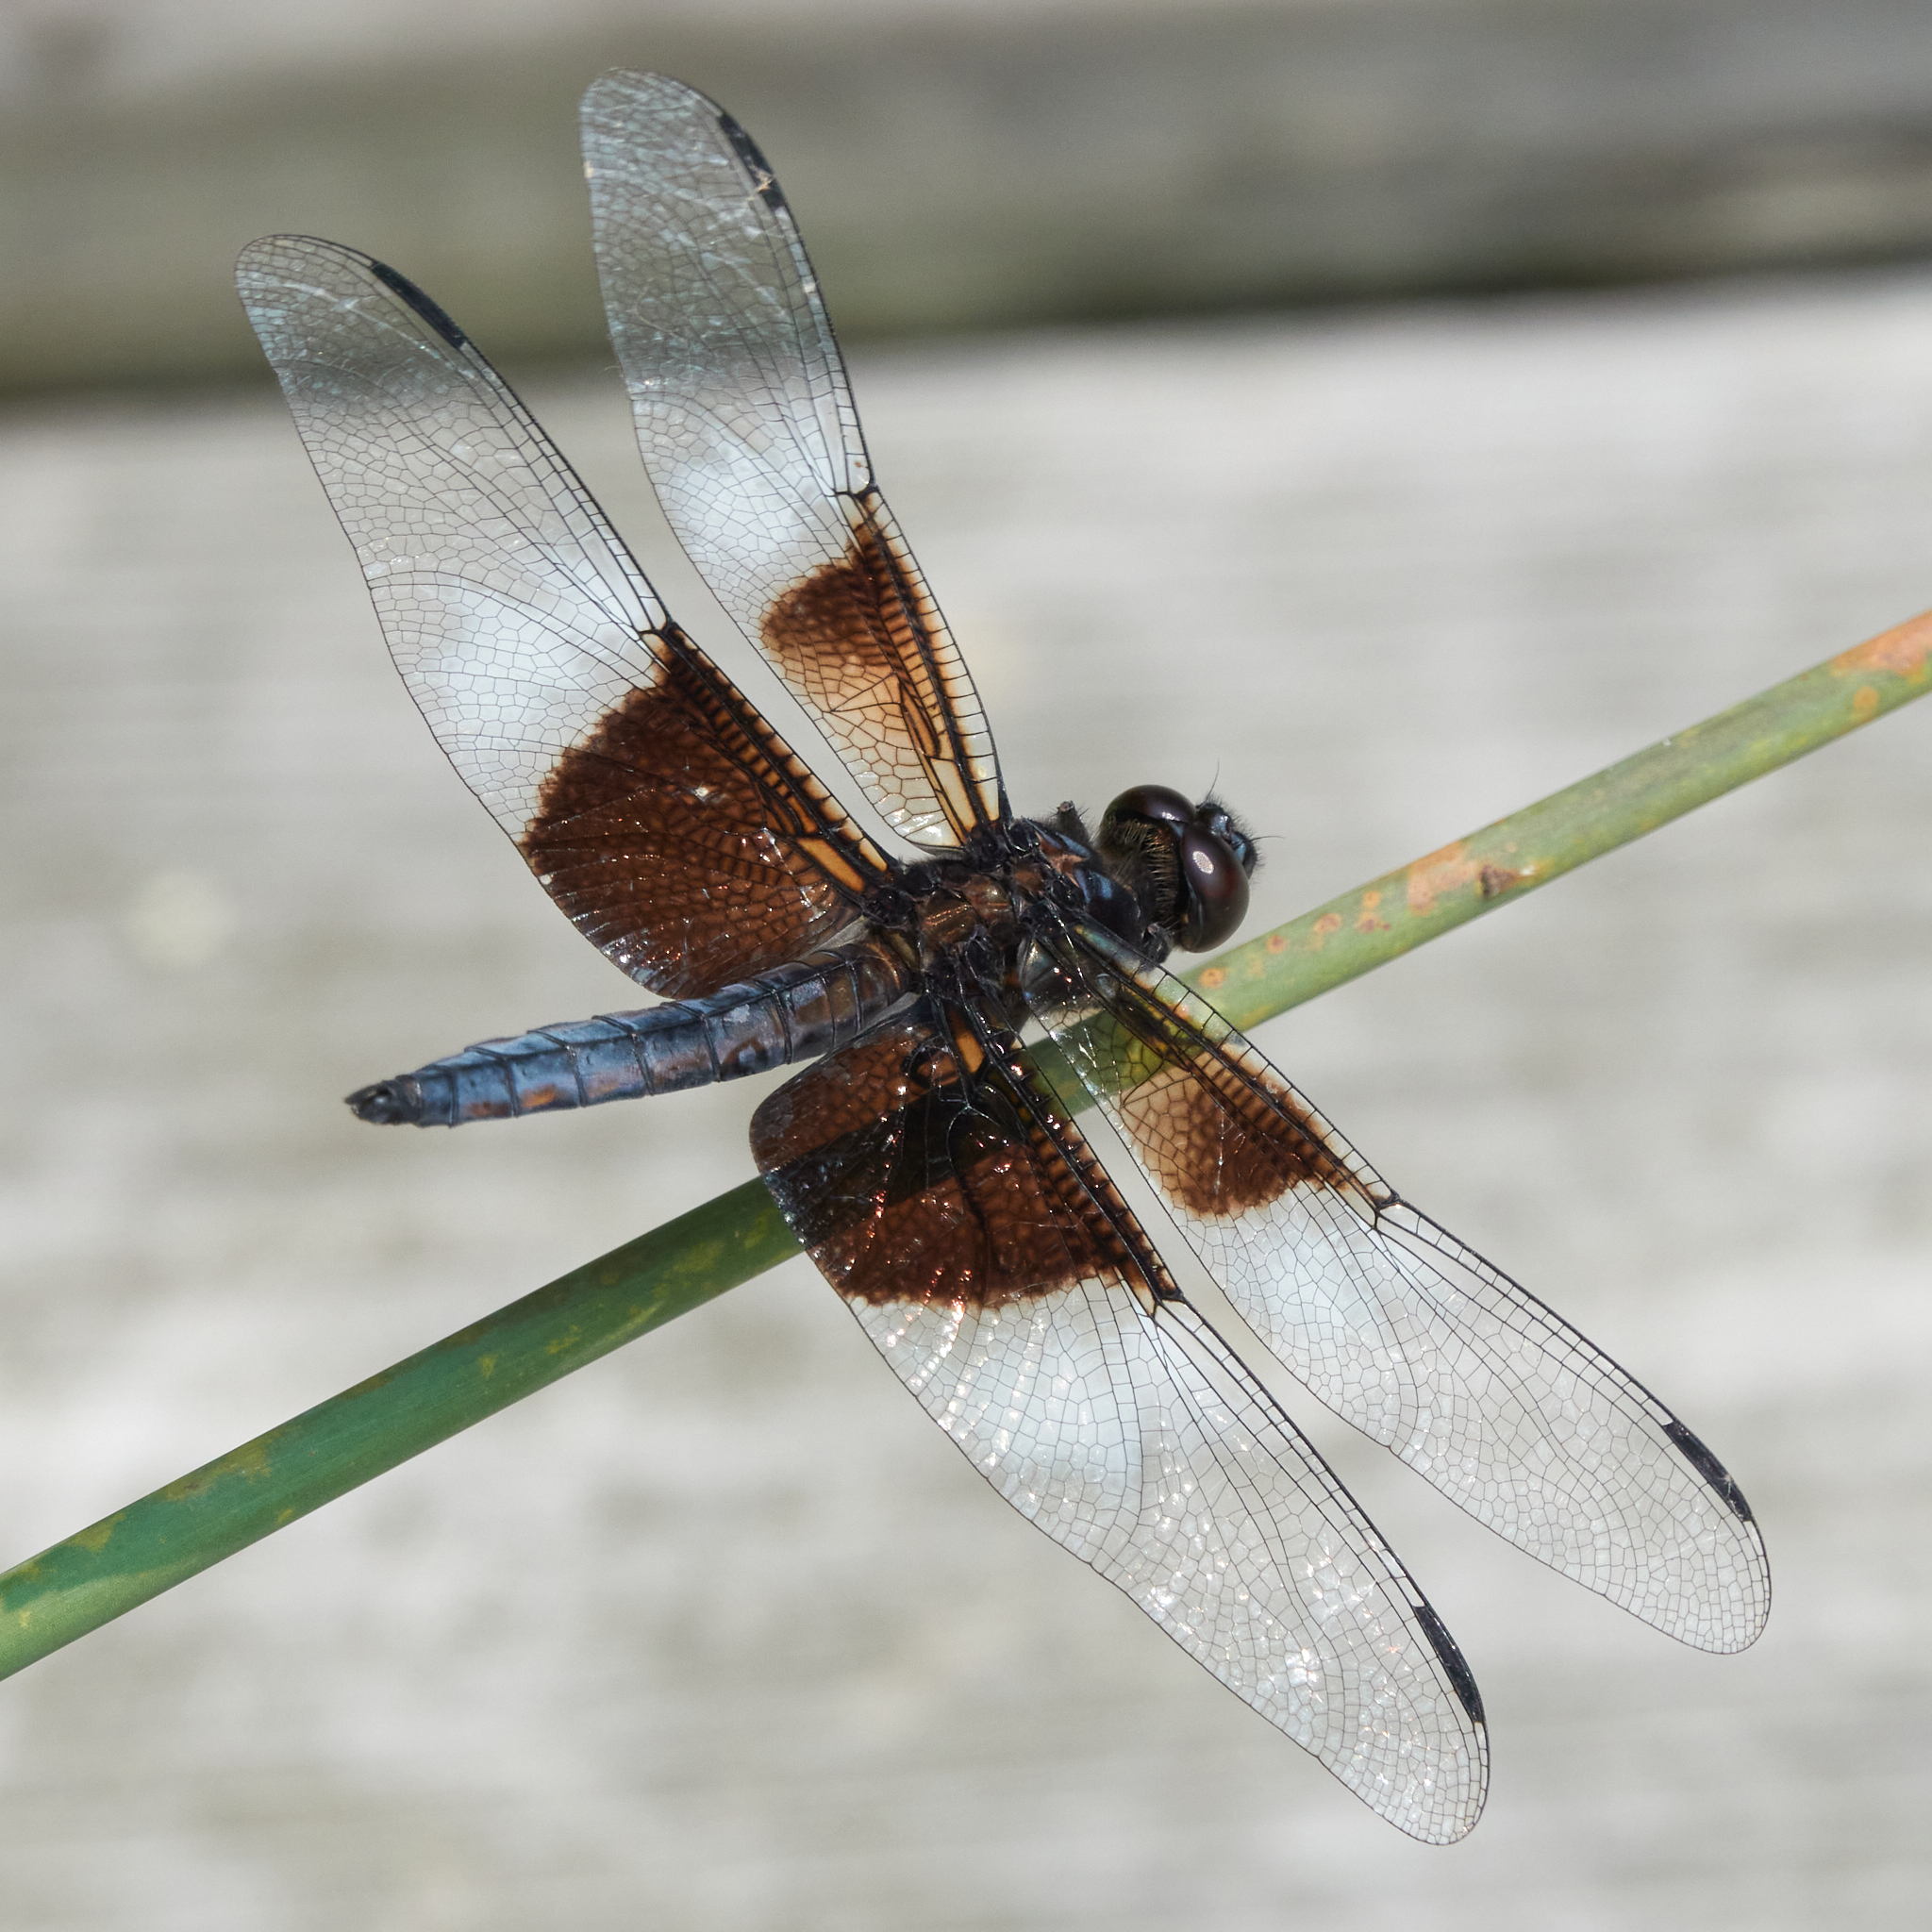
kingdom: Animalia
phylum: Arthropoda
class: Insecta
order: Odonata
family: Libellulidae
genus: Libellula
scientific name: Libellula luctuosa
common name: Widow skimmer
